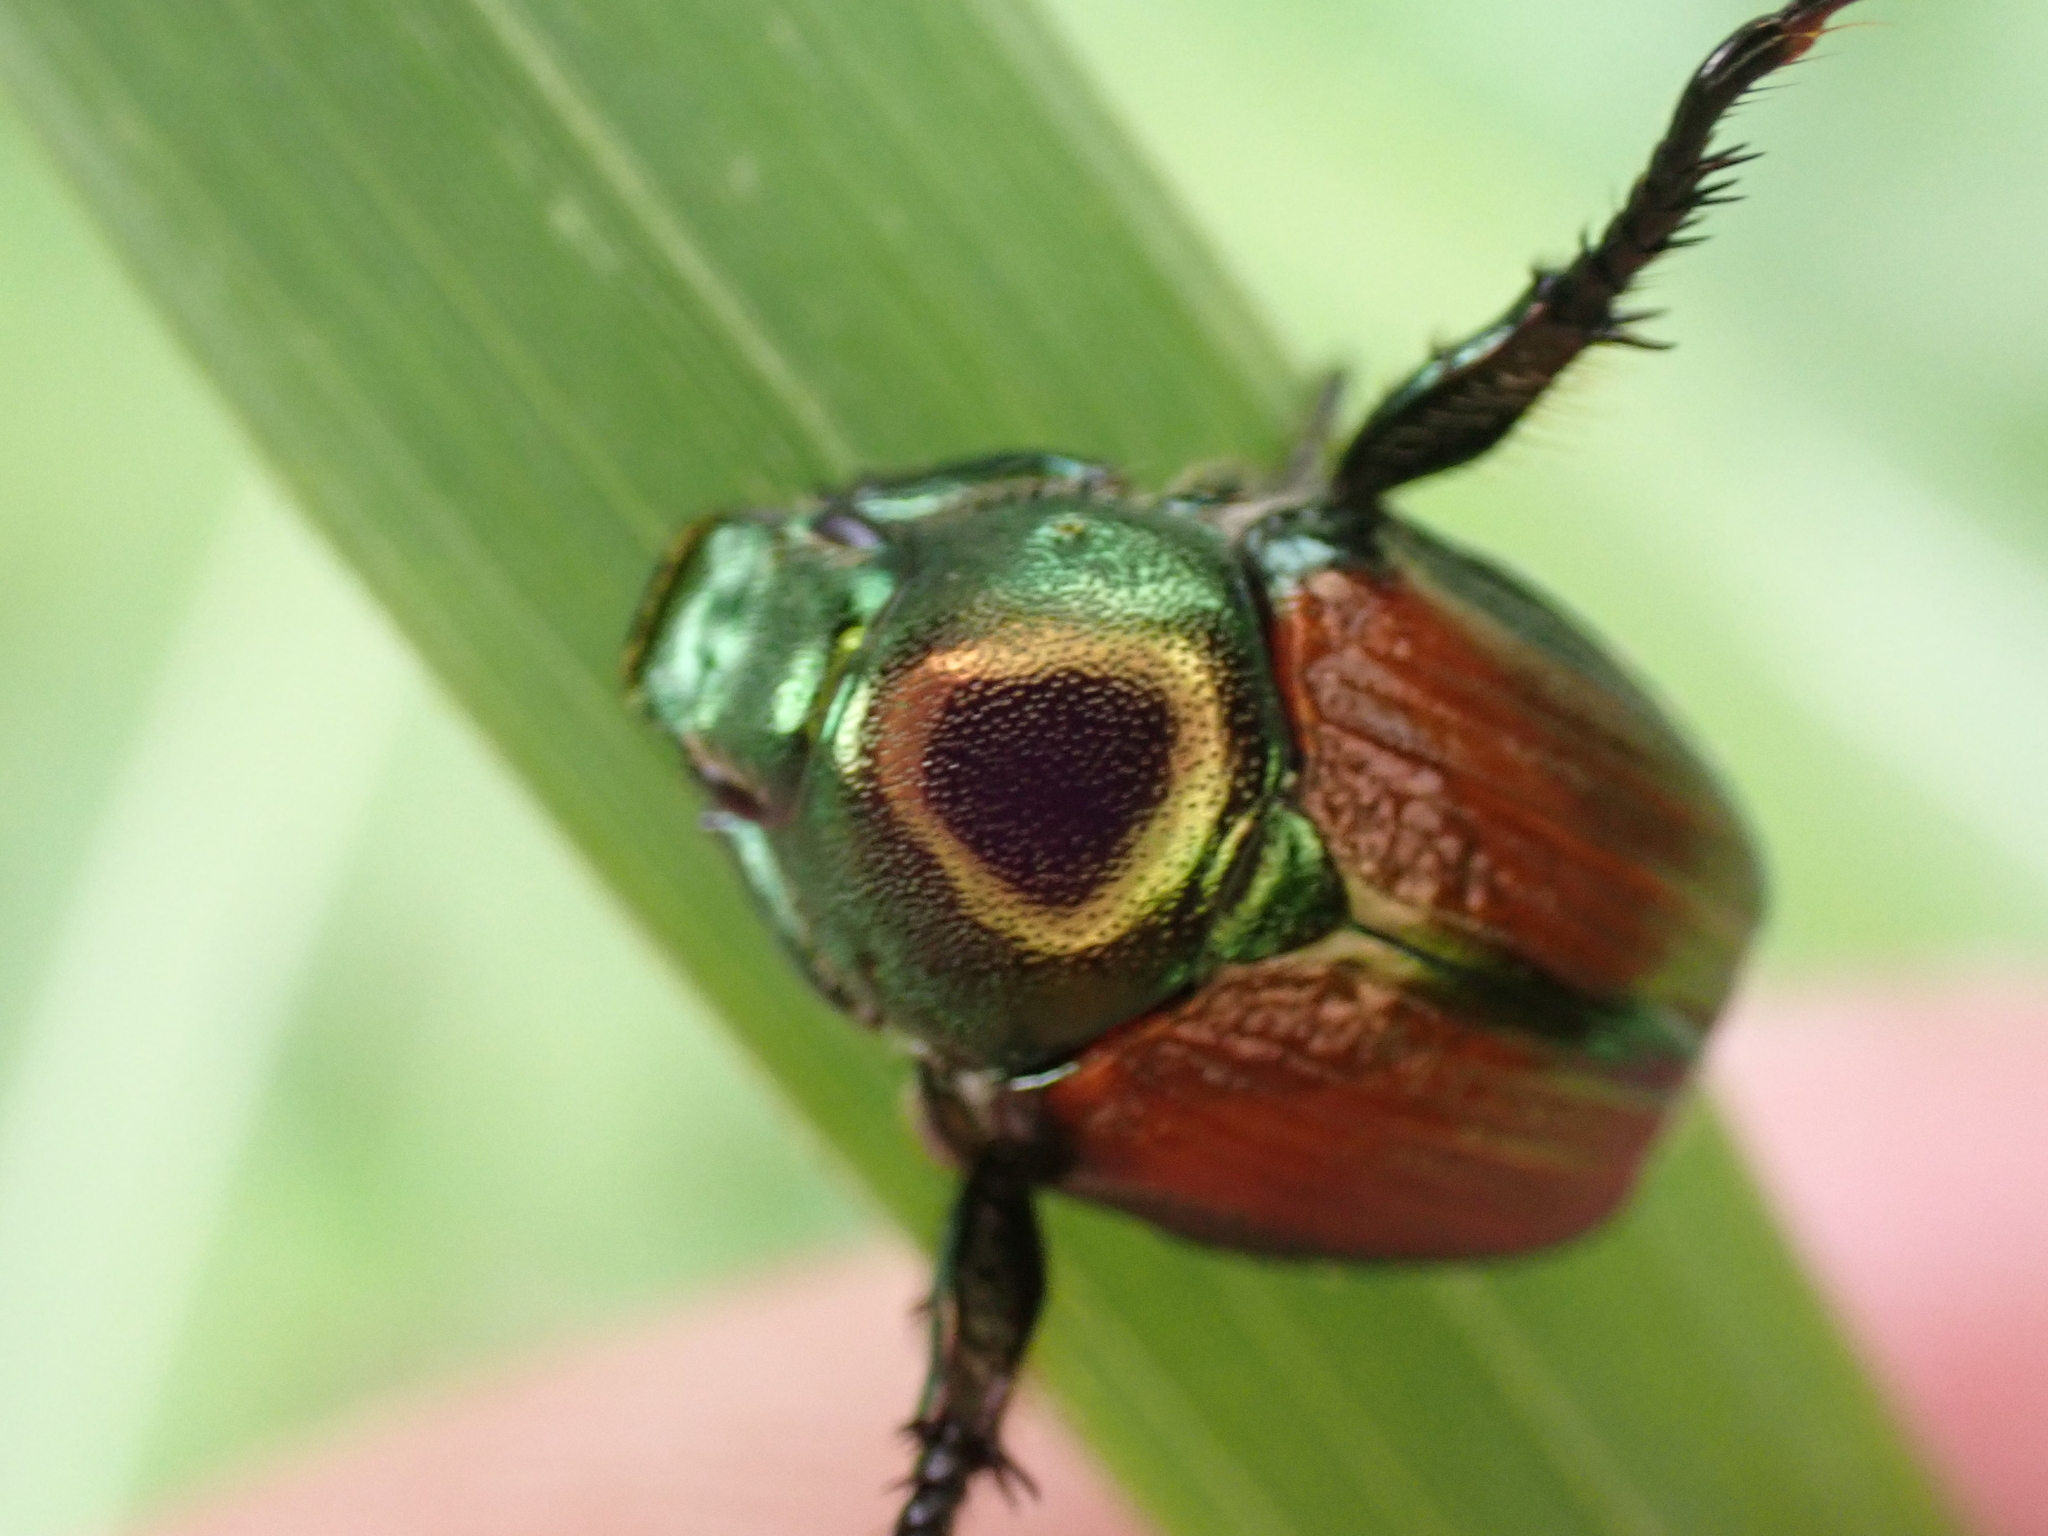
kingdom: Animalia
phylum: Arthropoda
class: Insecta
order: Coleoptera
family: Scarabaeidae
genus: Popillia
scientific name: Popillia japonica
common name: Japanese beetle
